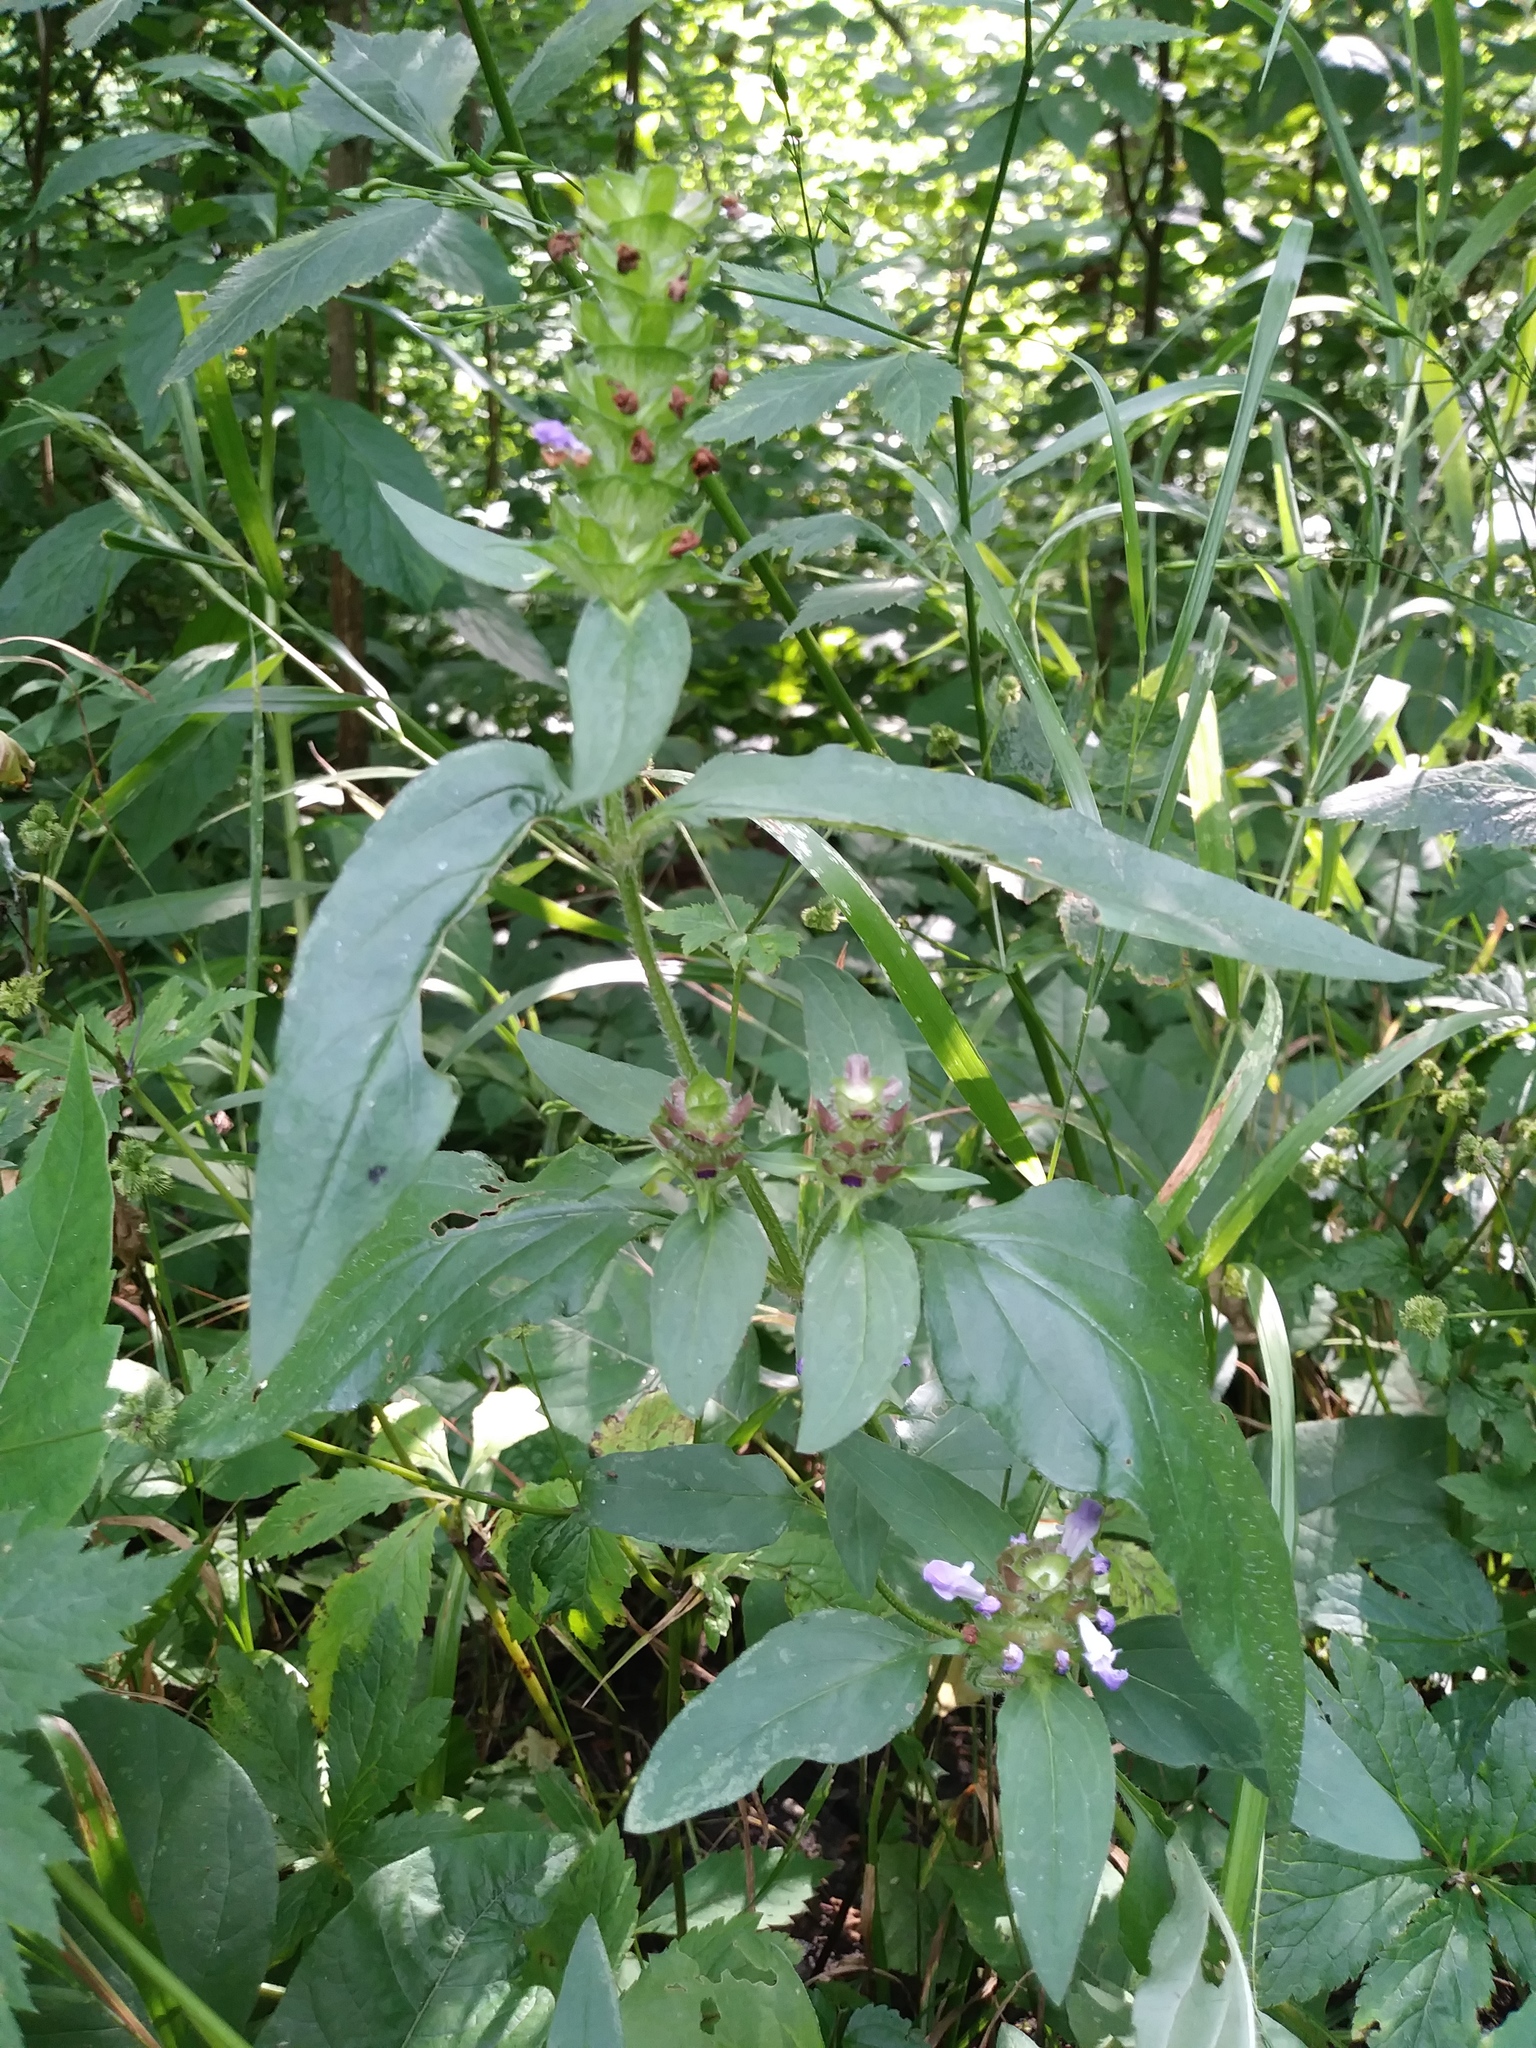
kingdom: Plantae
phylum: Tracheophyta
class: Magnoliopsida
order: Lamiales
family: Lamiaceae
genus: Prunella
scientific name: Prunella vulgaris
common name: Heal-all
